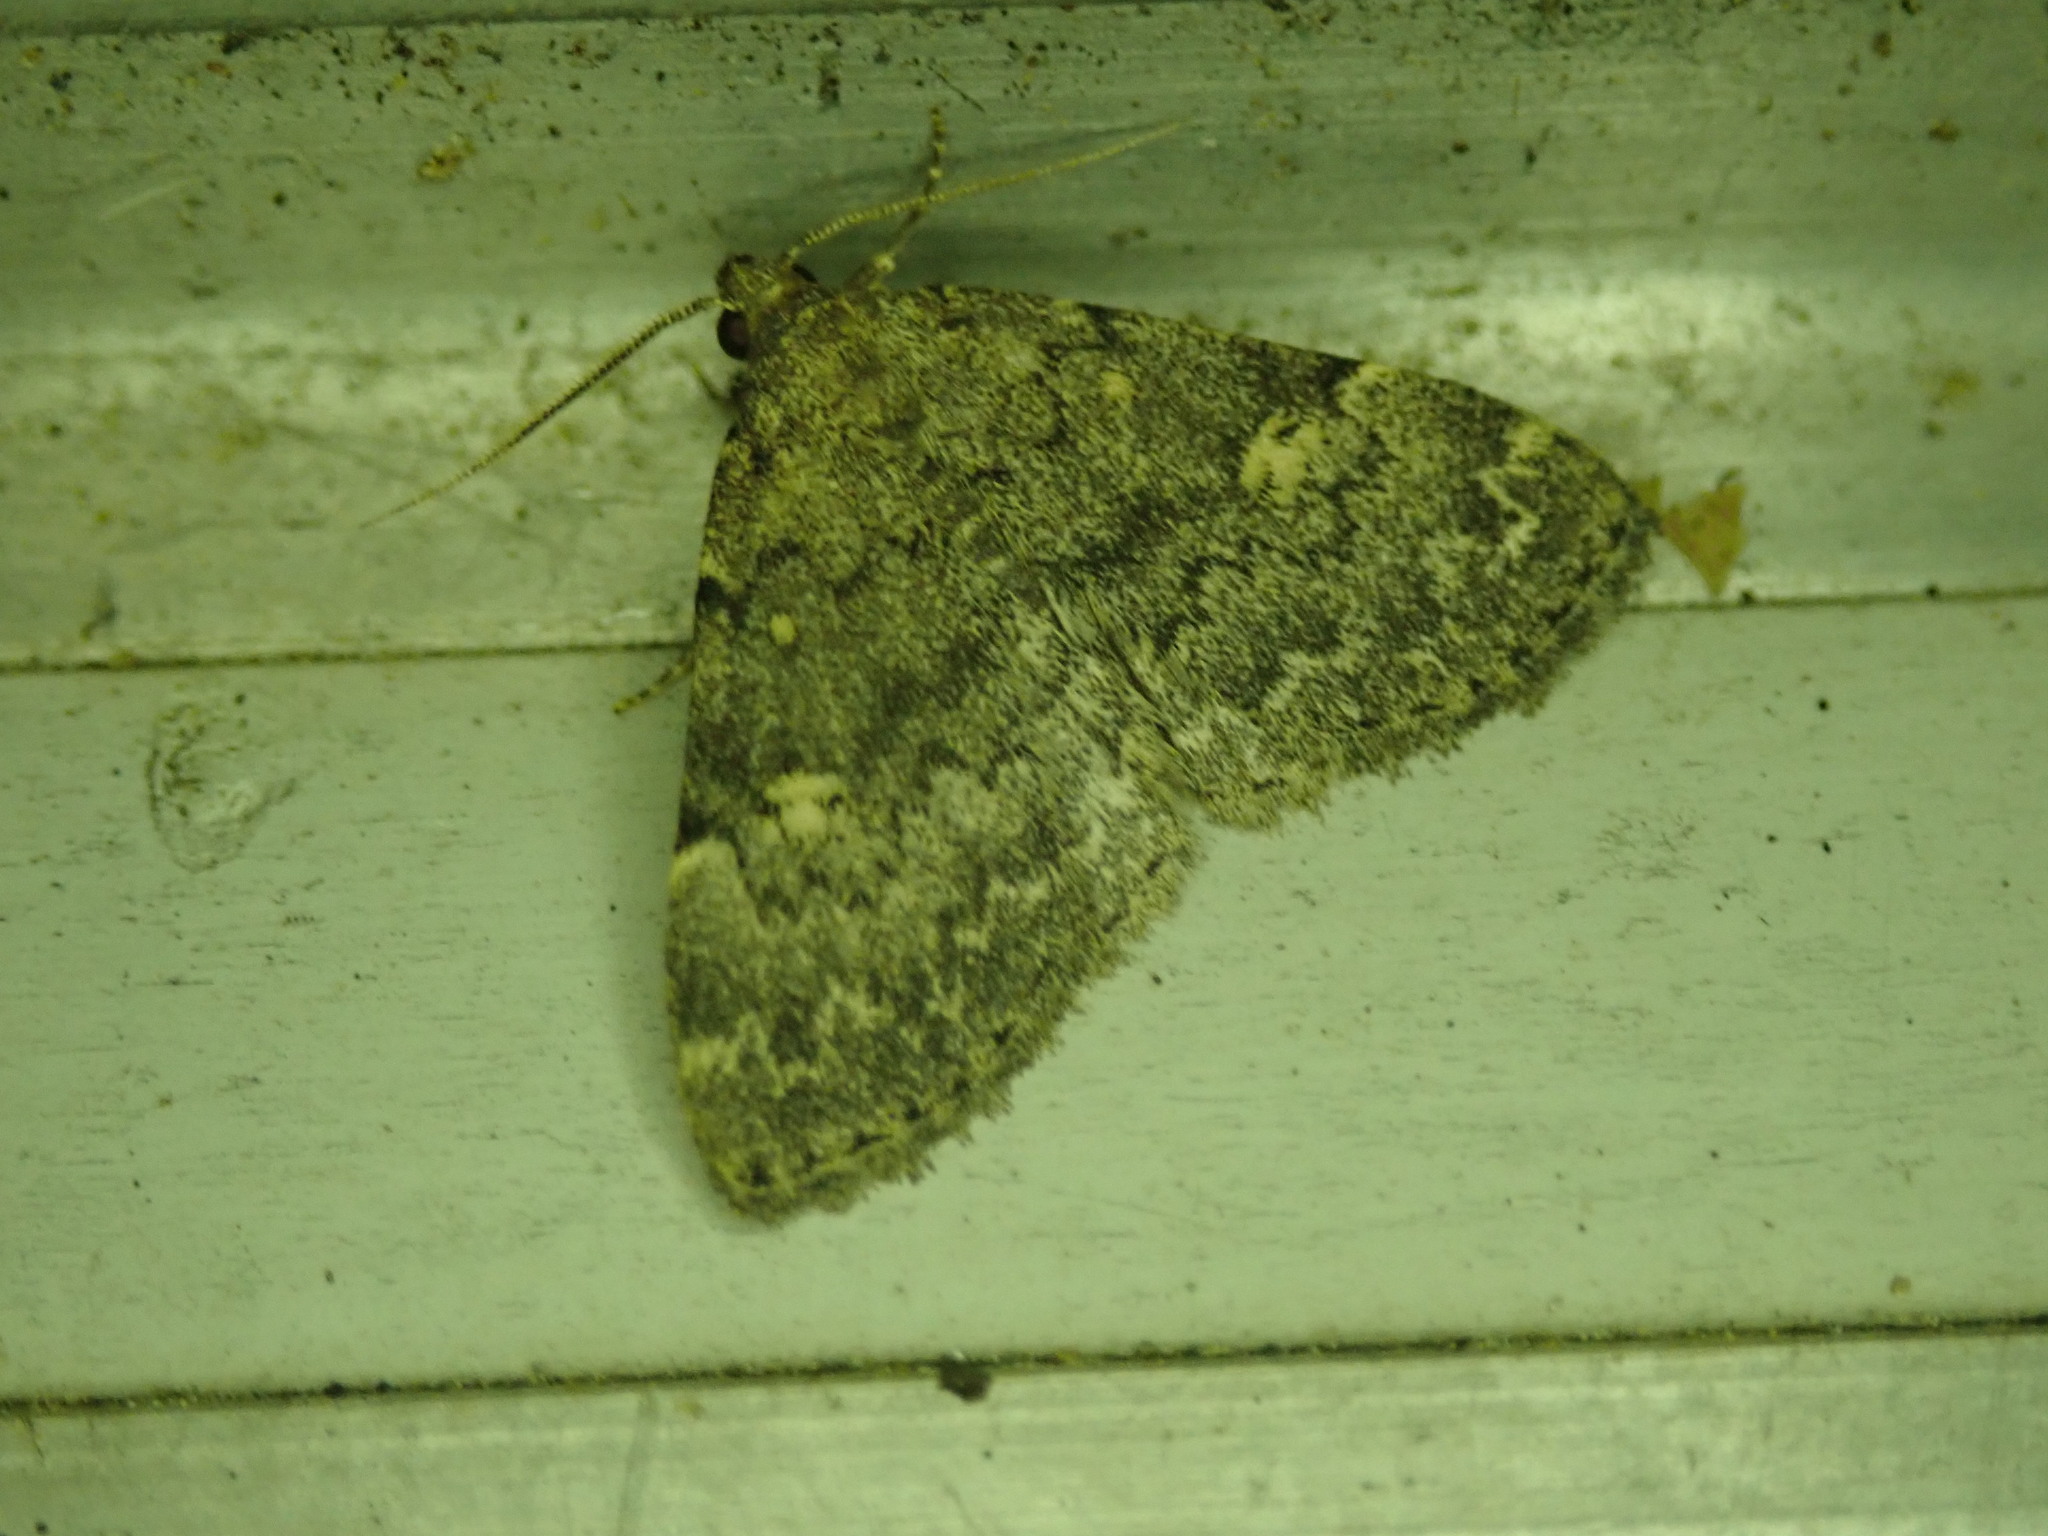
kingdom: Animalia
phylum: Arthropoda
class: Insecta
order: Lepidoptera
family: Erebidae
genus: Idia
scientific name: Idia aemula
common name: Common idia moth
